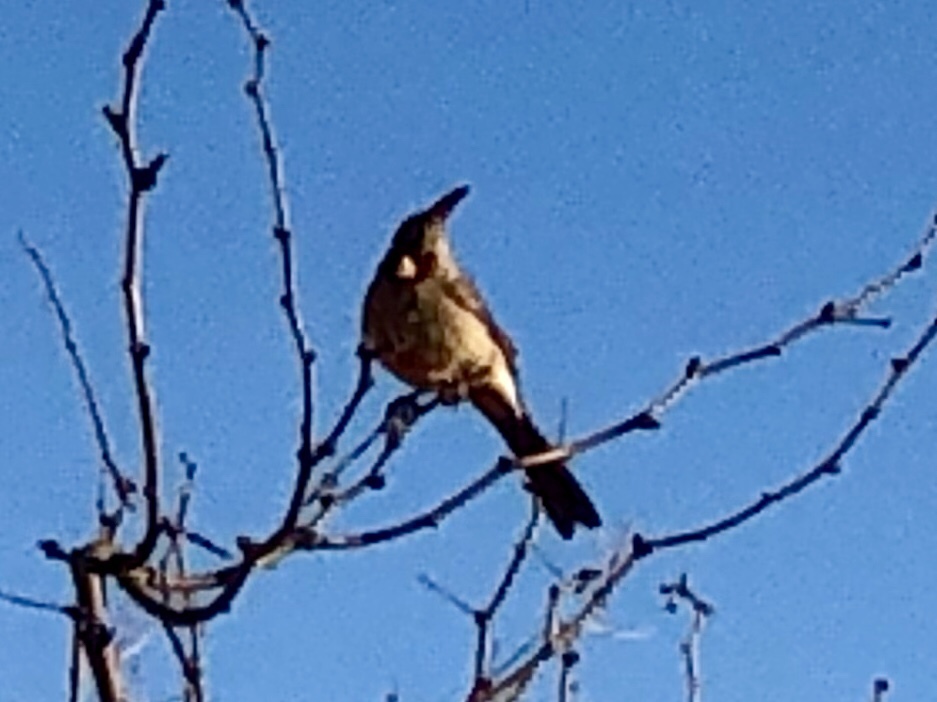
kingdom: Animalia
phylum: Chordata
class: Aves
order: Passeriformes
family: Cardinalidae
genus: Cardinalis
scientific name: Cardinalis sinuatus
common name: Pyrrhuloxia
